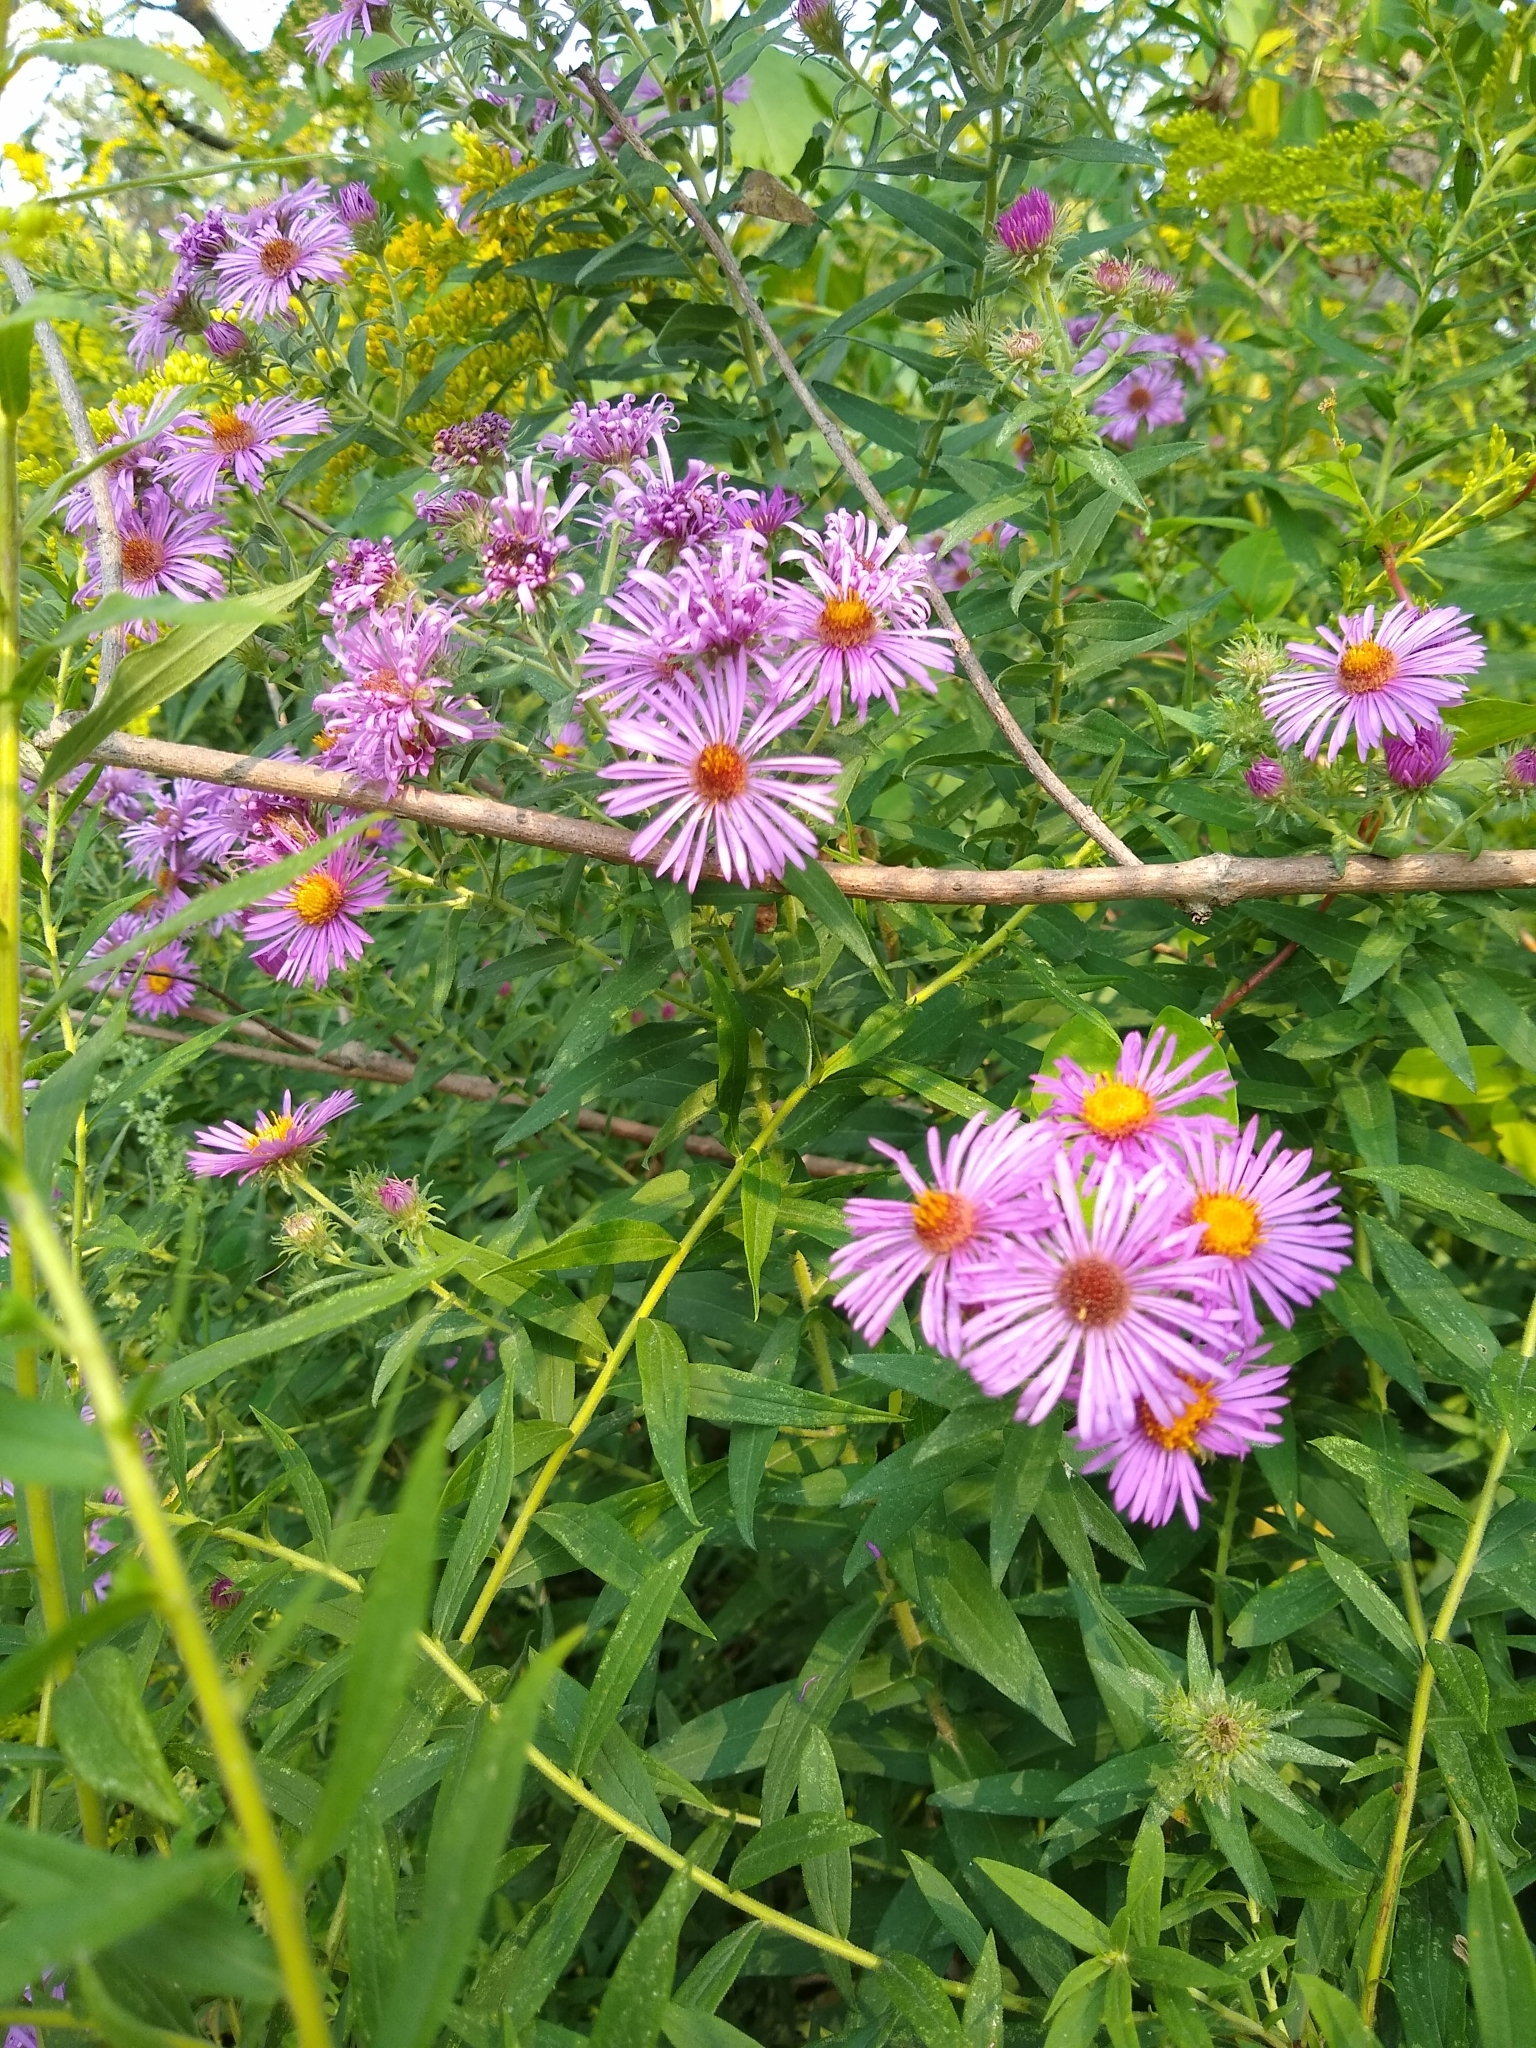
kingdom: Plantae
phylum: Tracheophyta
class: Magnoliopsida
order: Asterales
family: Asteraceae
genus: Symphyotrichum
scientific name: Symphyotrichum novae-angliae
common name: Michaelmas daisy
